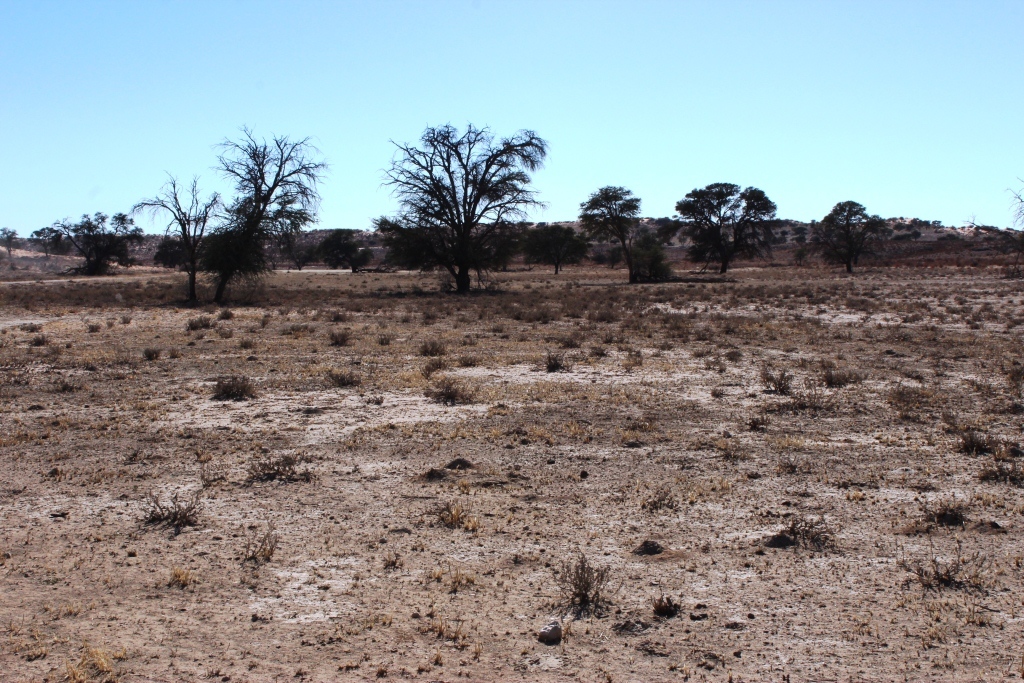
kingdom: Plantae
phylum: Tracheophyta
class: Magnoliopsida
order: Fabales
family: Fabaceae
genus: Vachellia
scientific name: Vachellia erioloba
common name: Camel thorn
